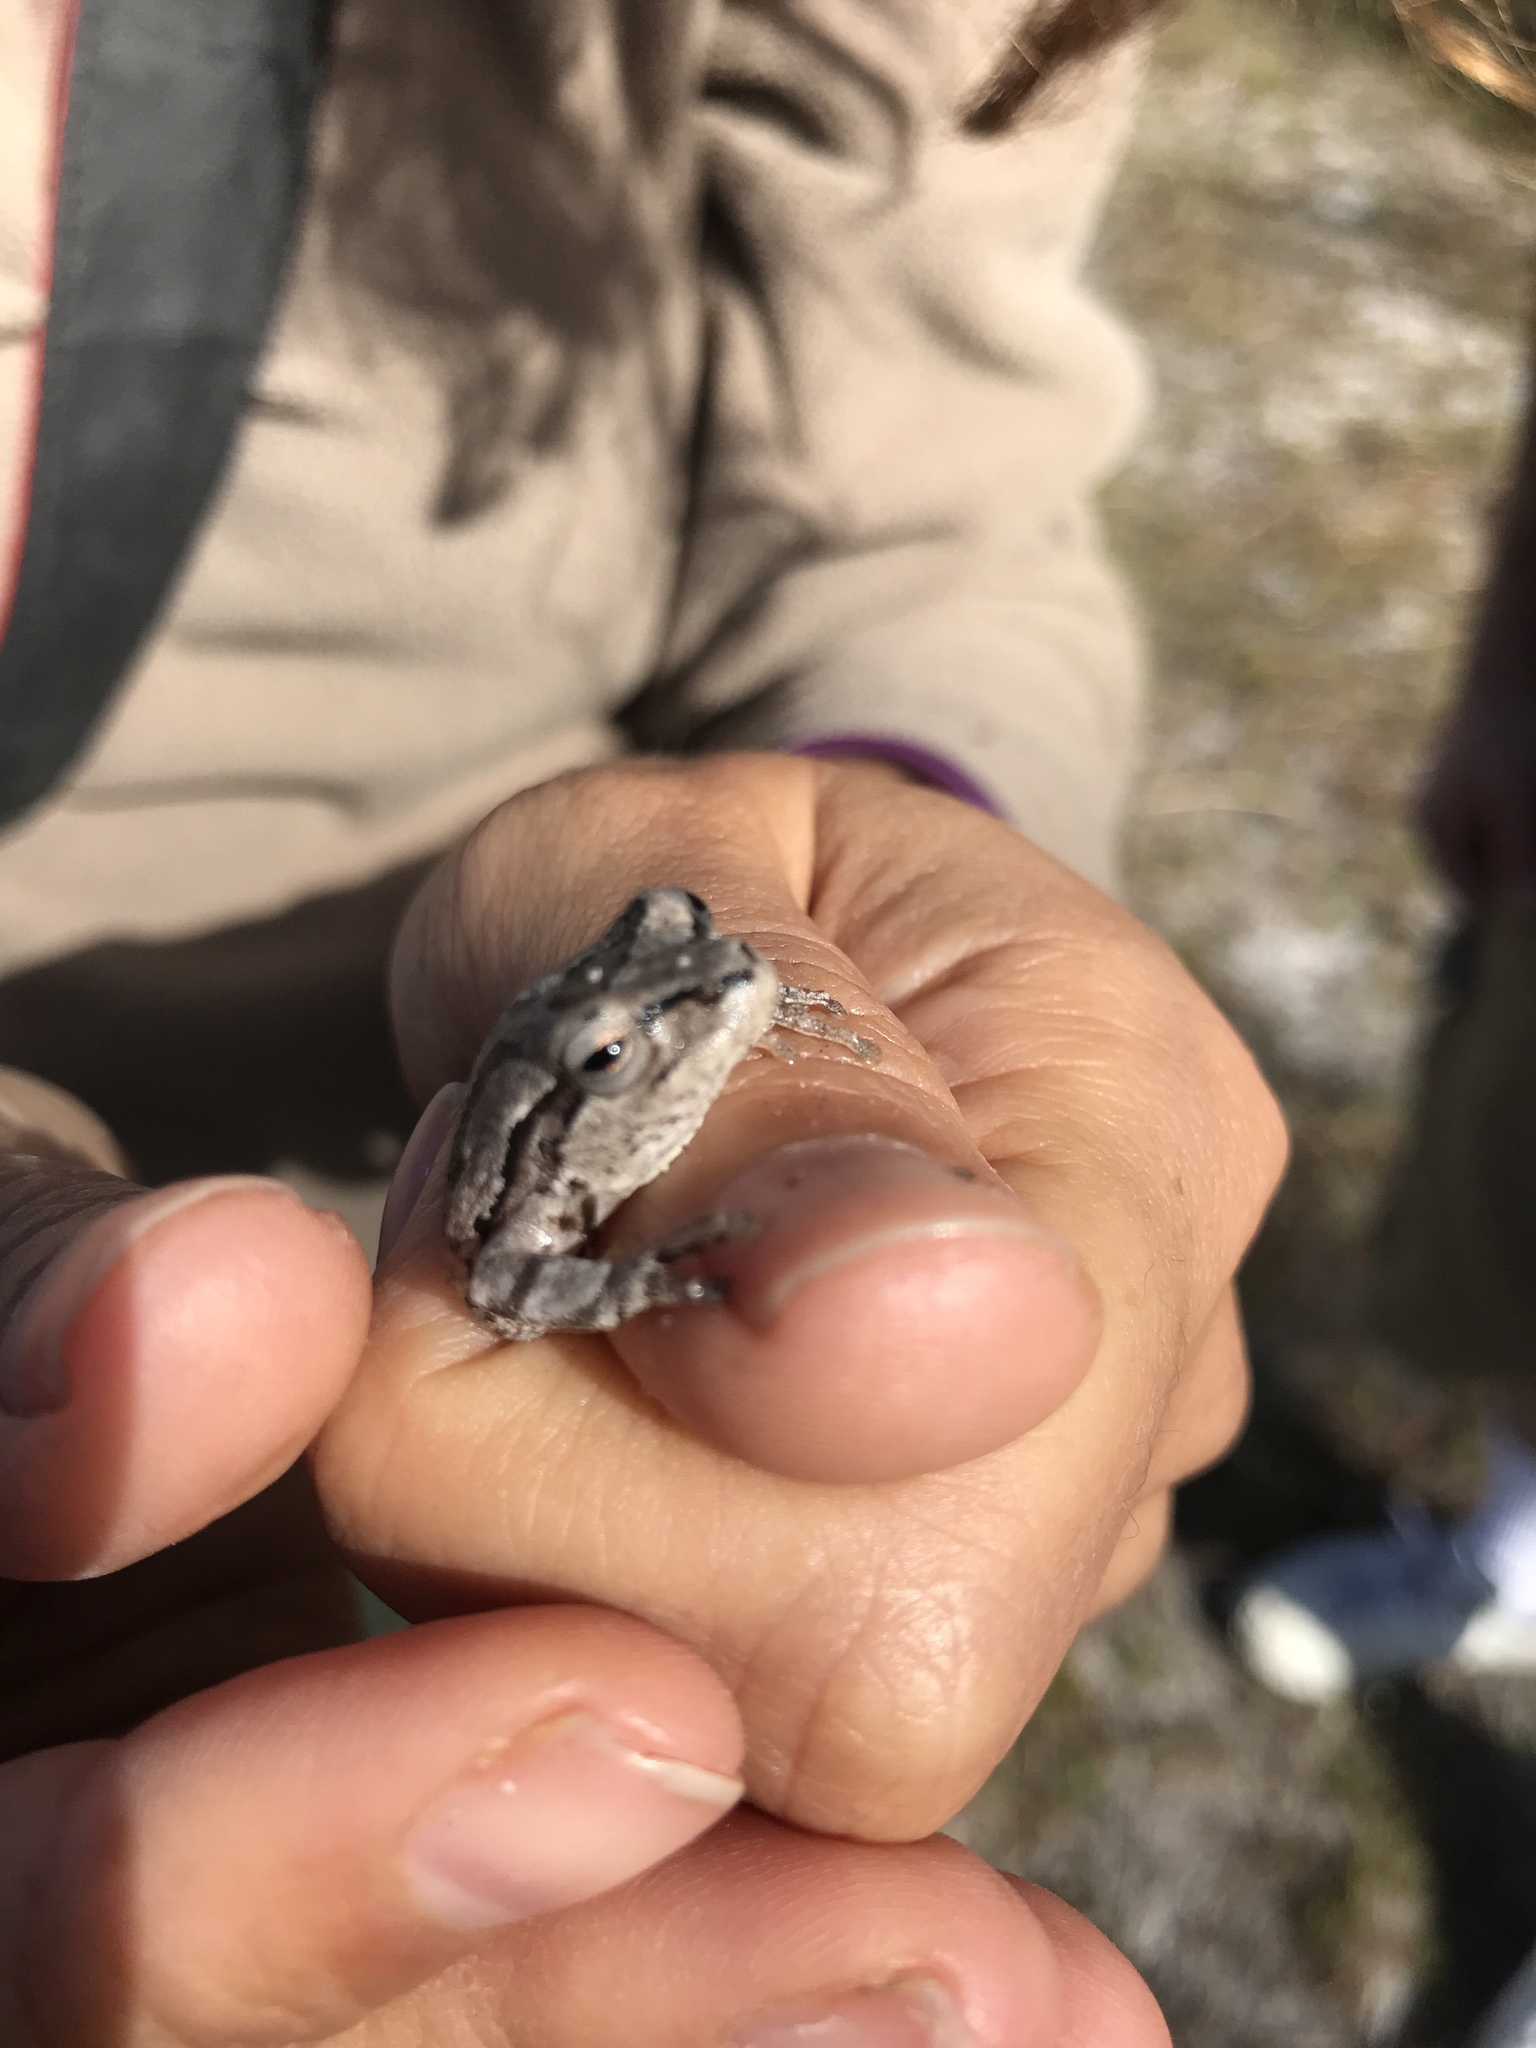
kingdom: Animalia
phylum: Chordata
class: Amphibia
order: Anura
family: Hylidae
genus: Hyla
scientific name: Hyla femoralis
